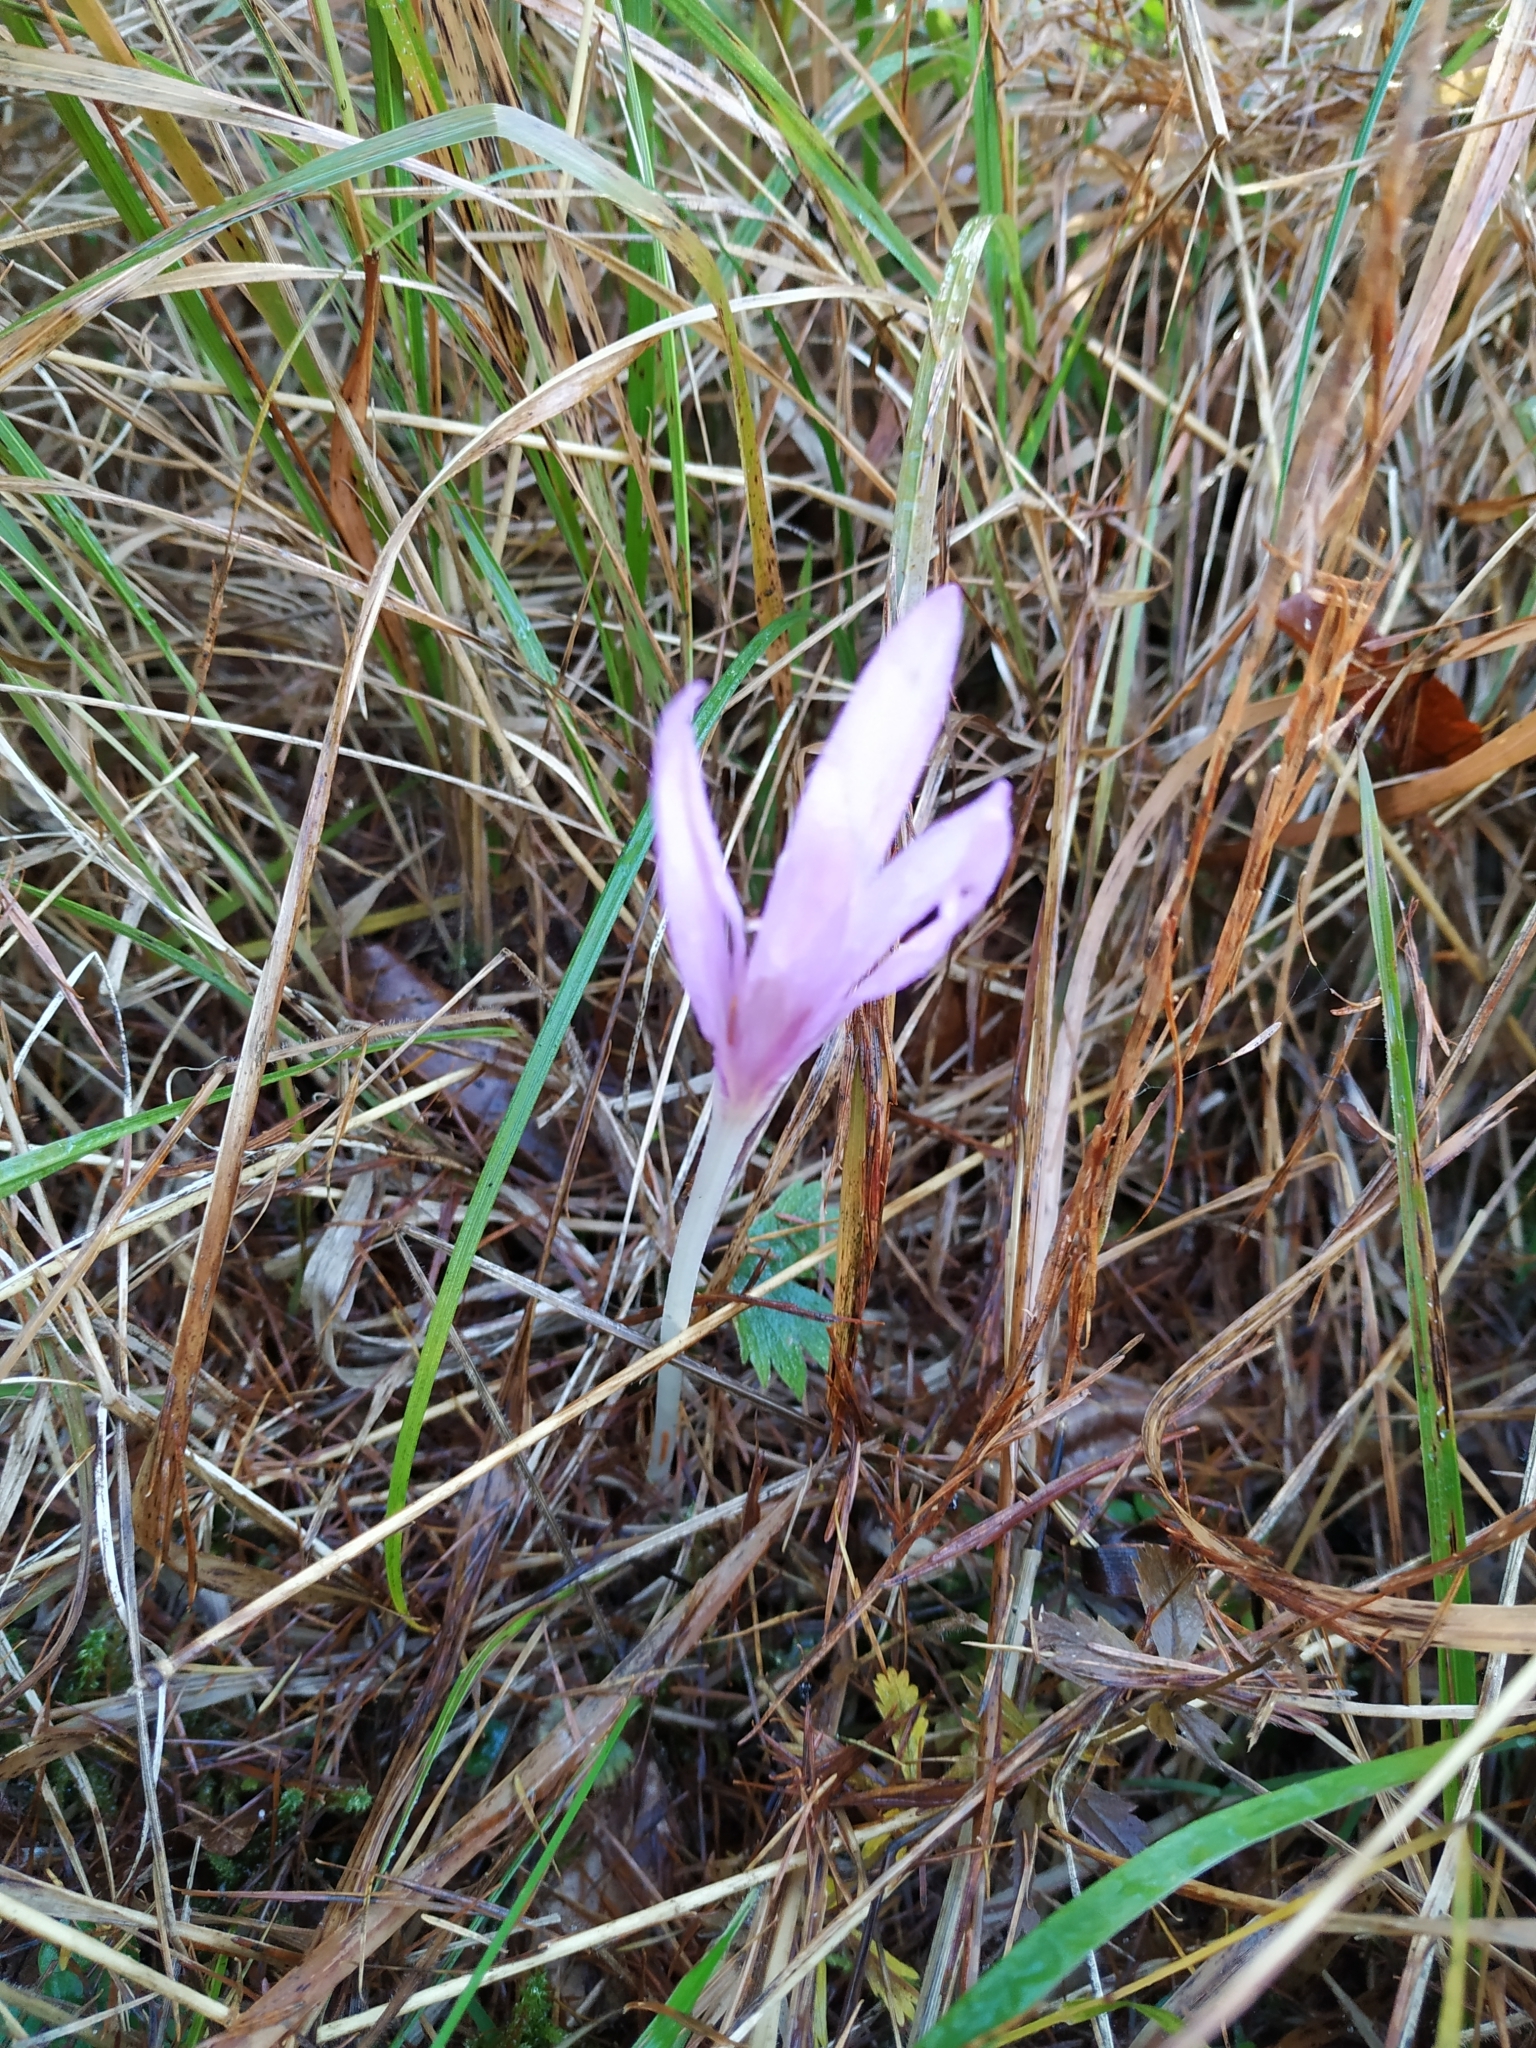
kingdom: Plantae
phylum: Tracheophyta
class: Liliopsida
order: Liliales
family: Colchicaceae
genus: Colchicum
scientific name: Colchicum autumnale
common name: Autumn crocus
